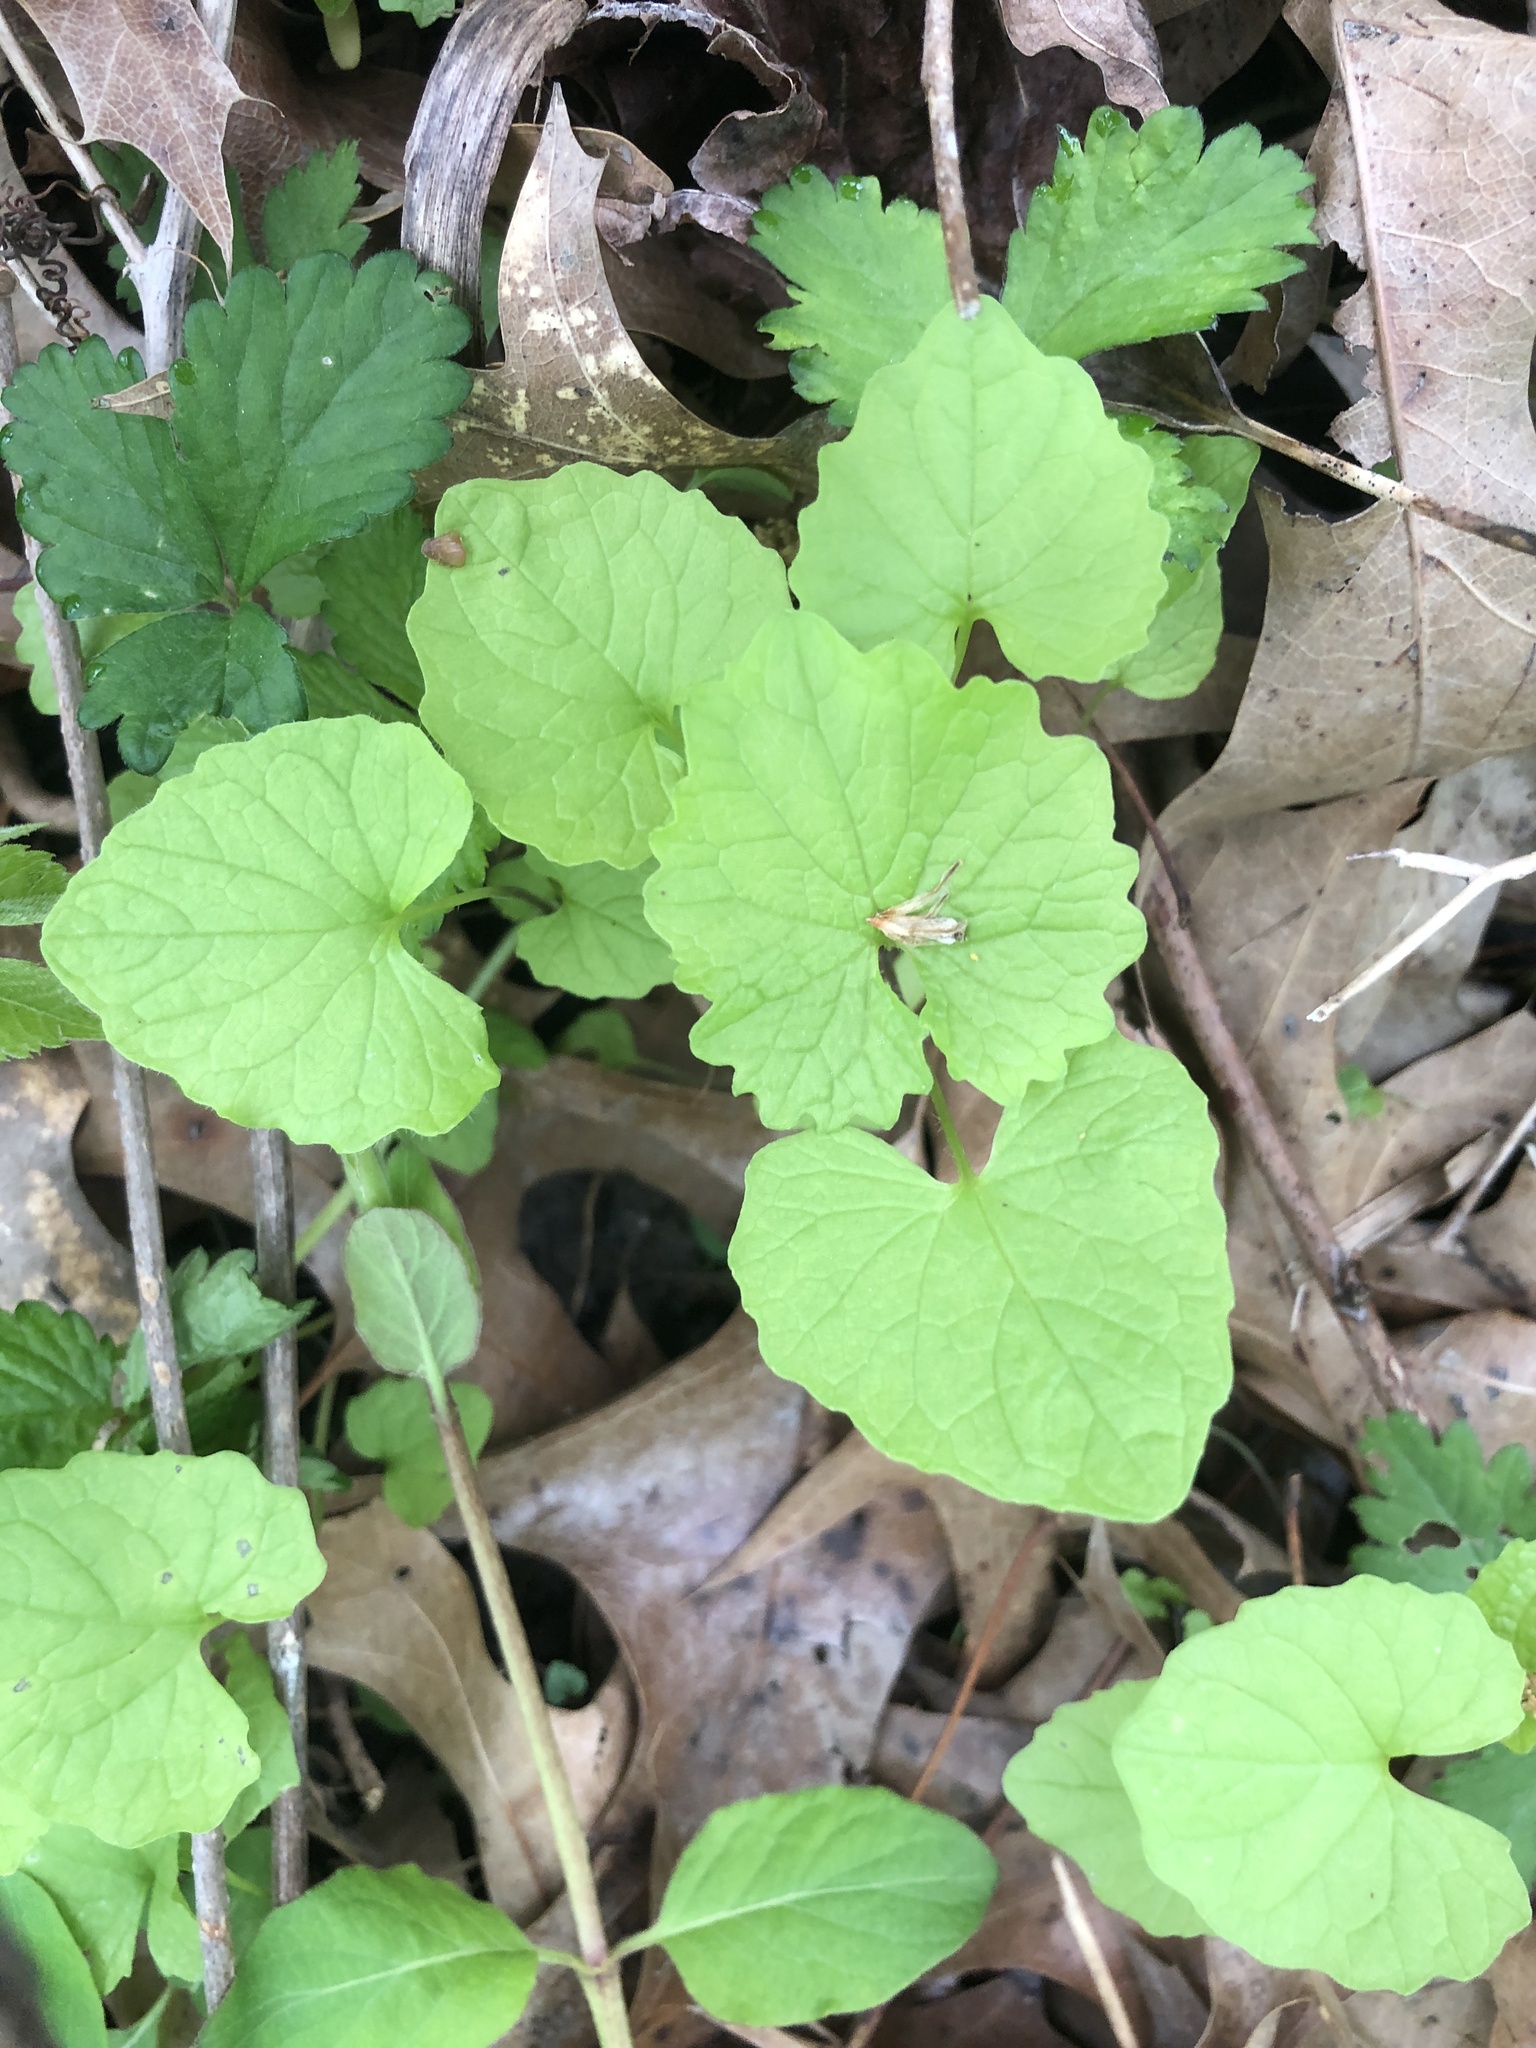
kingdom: Plantae
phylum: Tracheophyta
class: Magnoliopsida
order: Brassicales
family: Brassicaceae
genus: Alliaria
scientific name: Alliaria petiolata
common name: Garlic mustard
